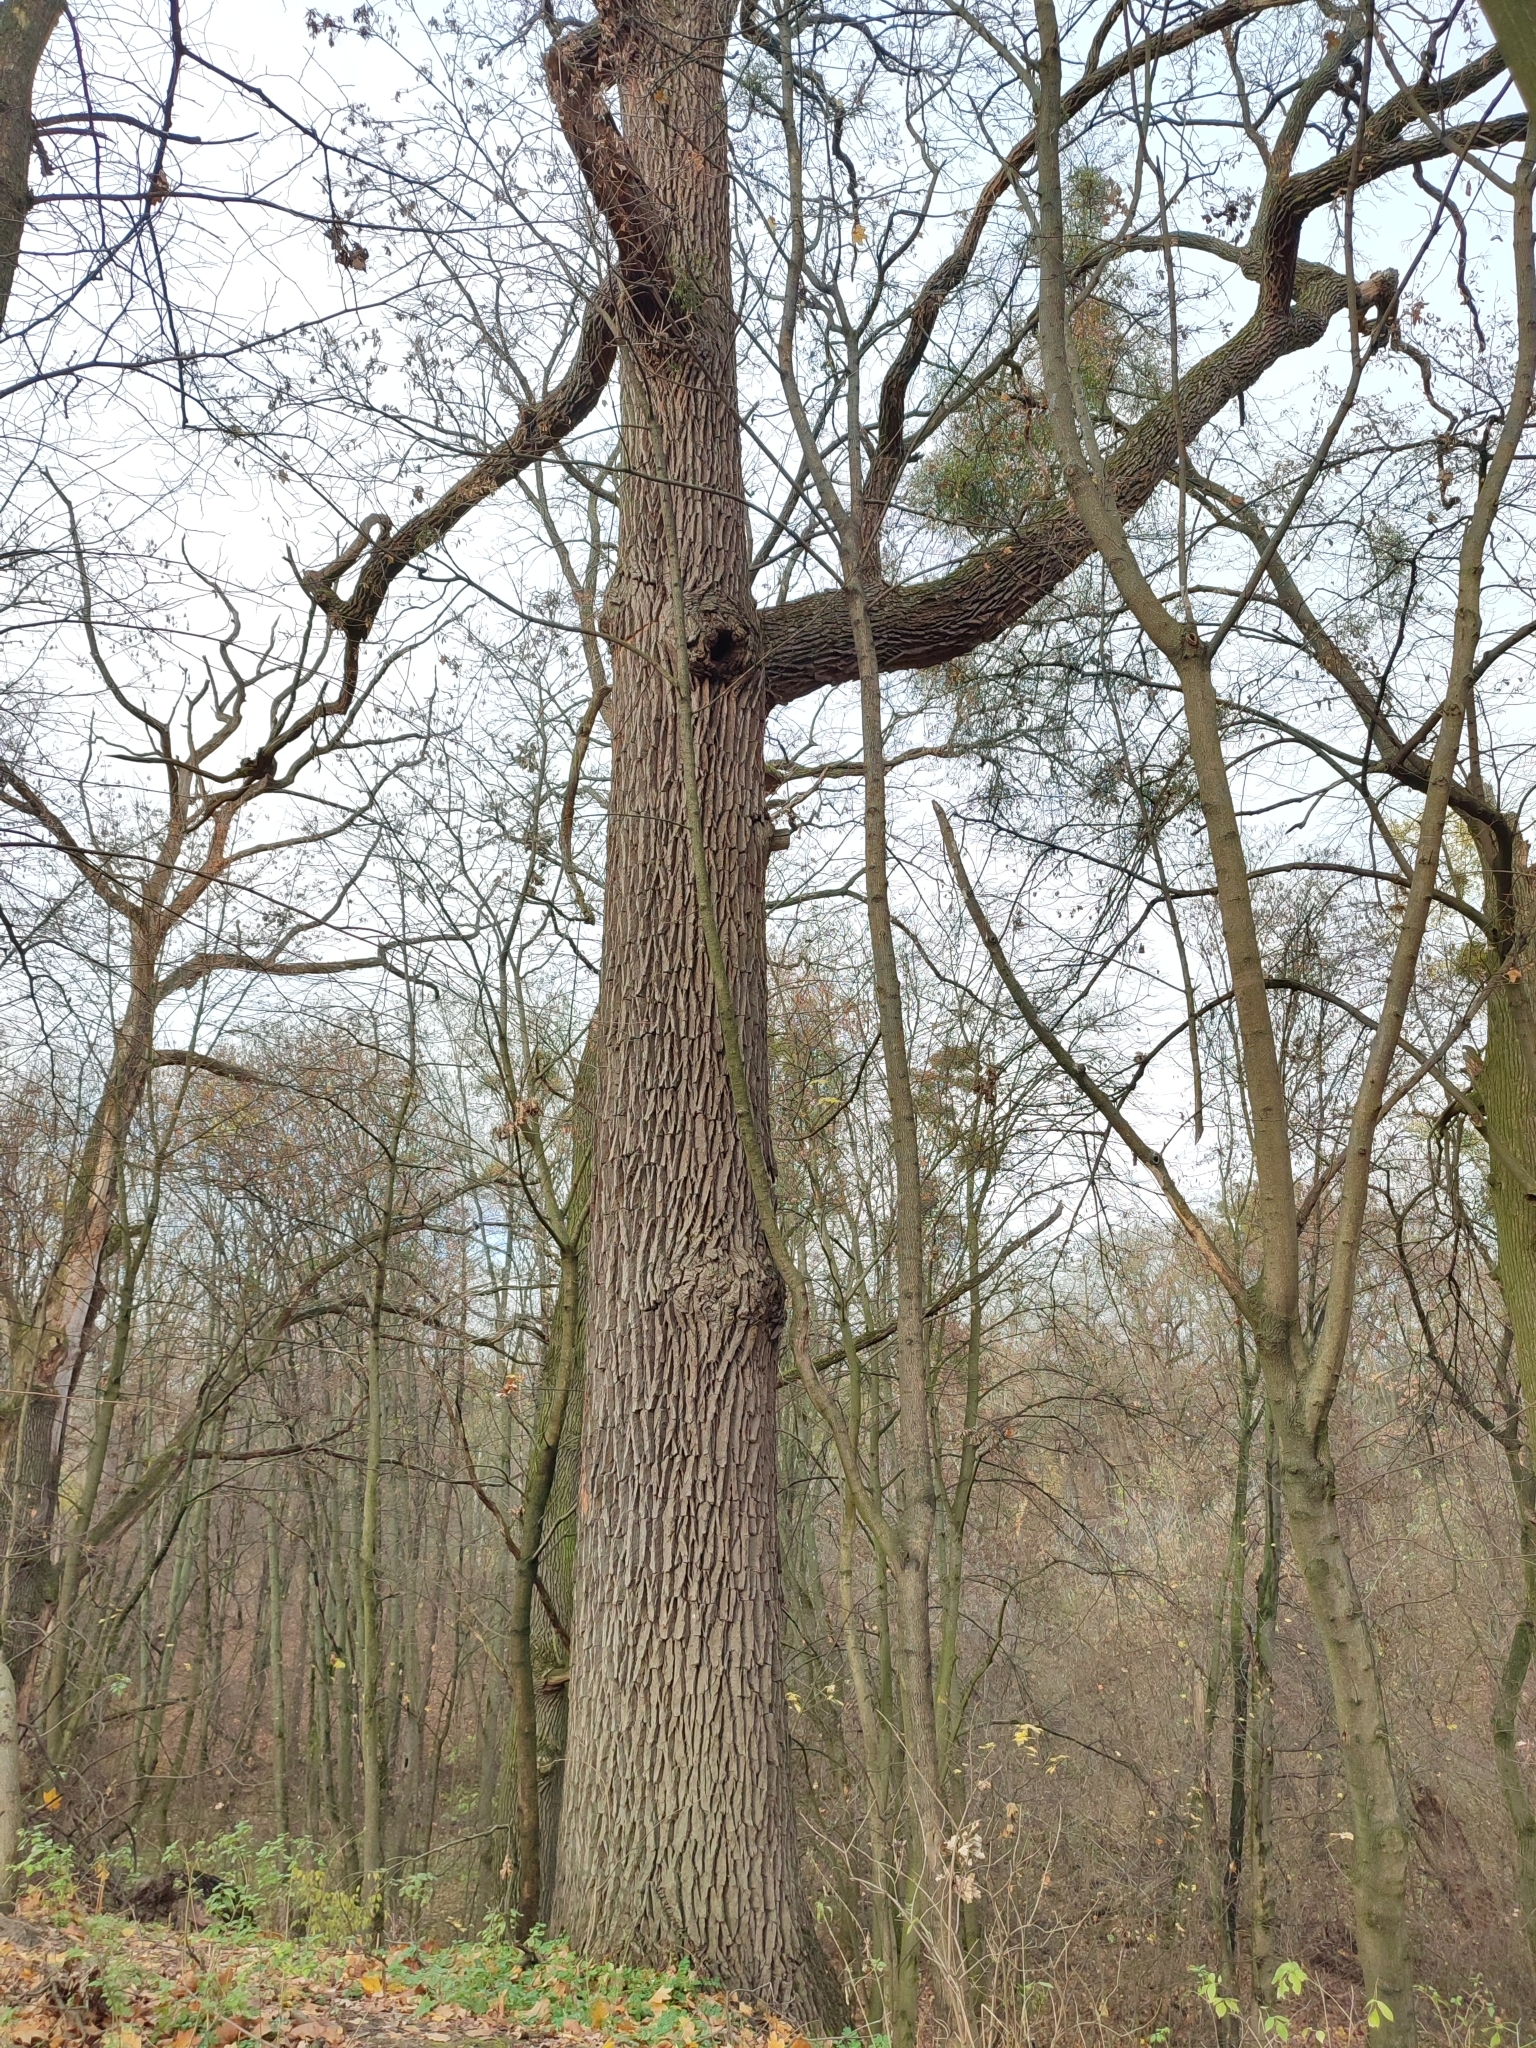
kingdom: Plantae
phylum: Tracheophyta
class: Magnoliopsida
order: Fagales
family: Fagaceae
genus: Quercus
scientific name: Quercus robur
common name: Pedunculate oak
